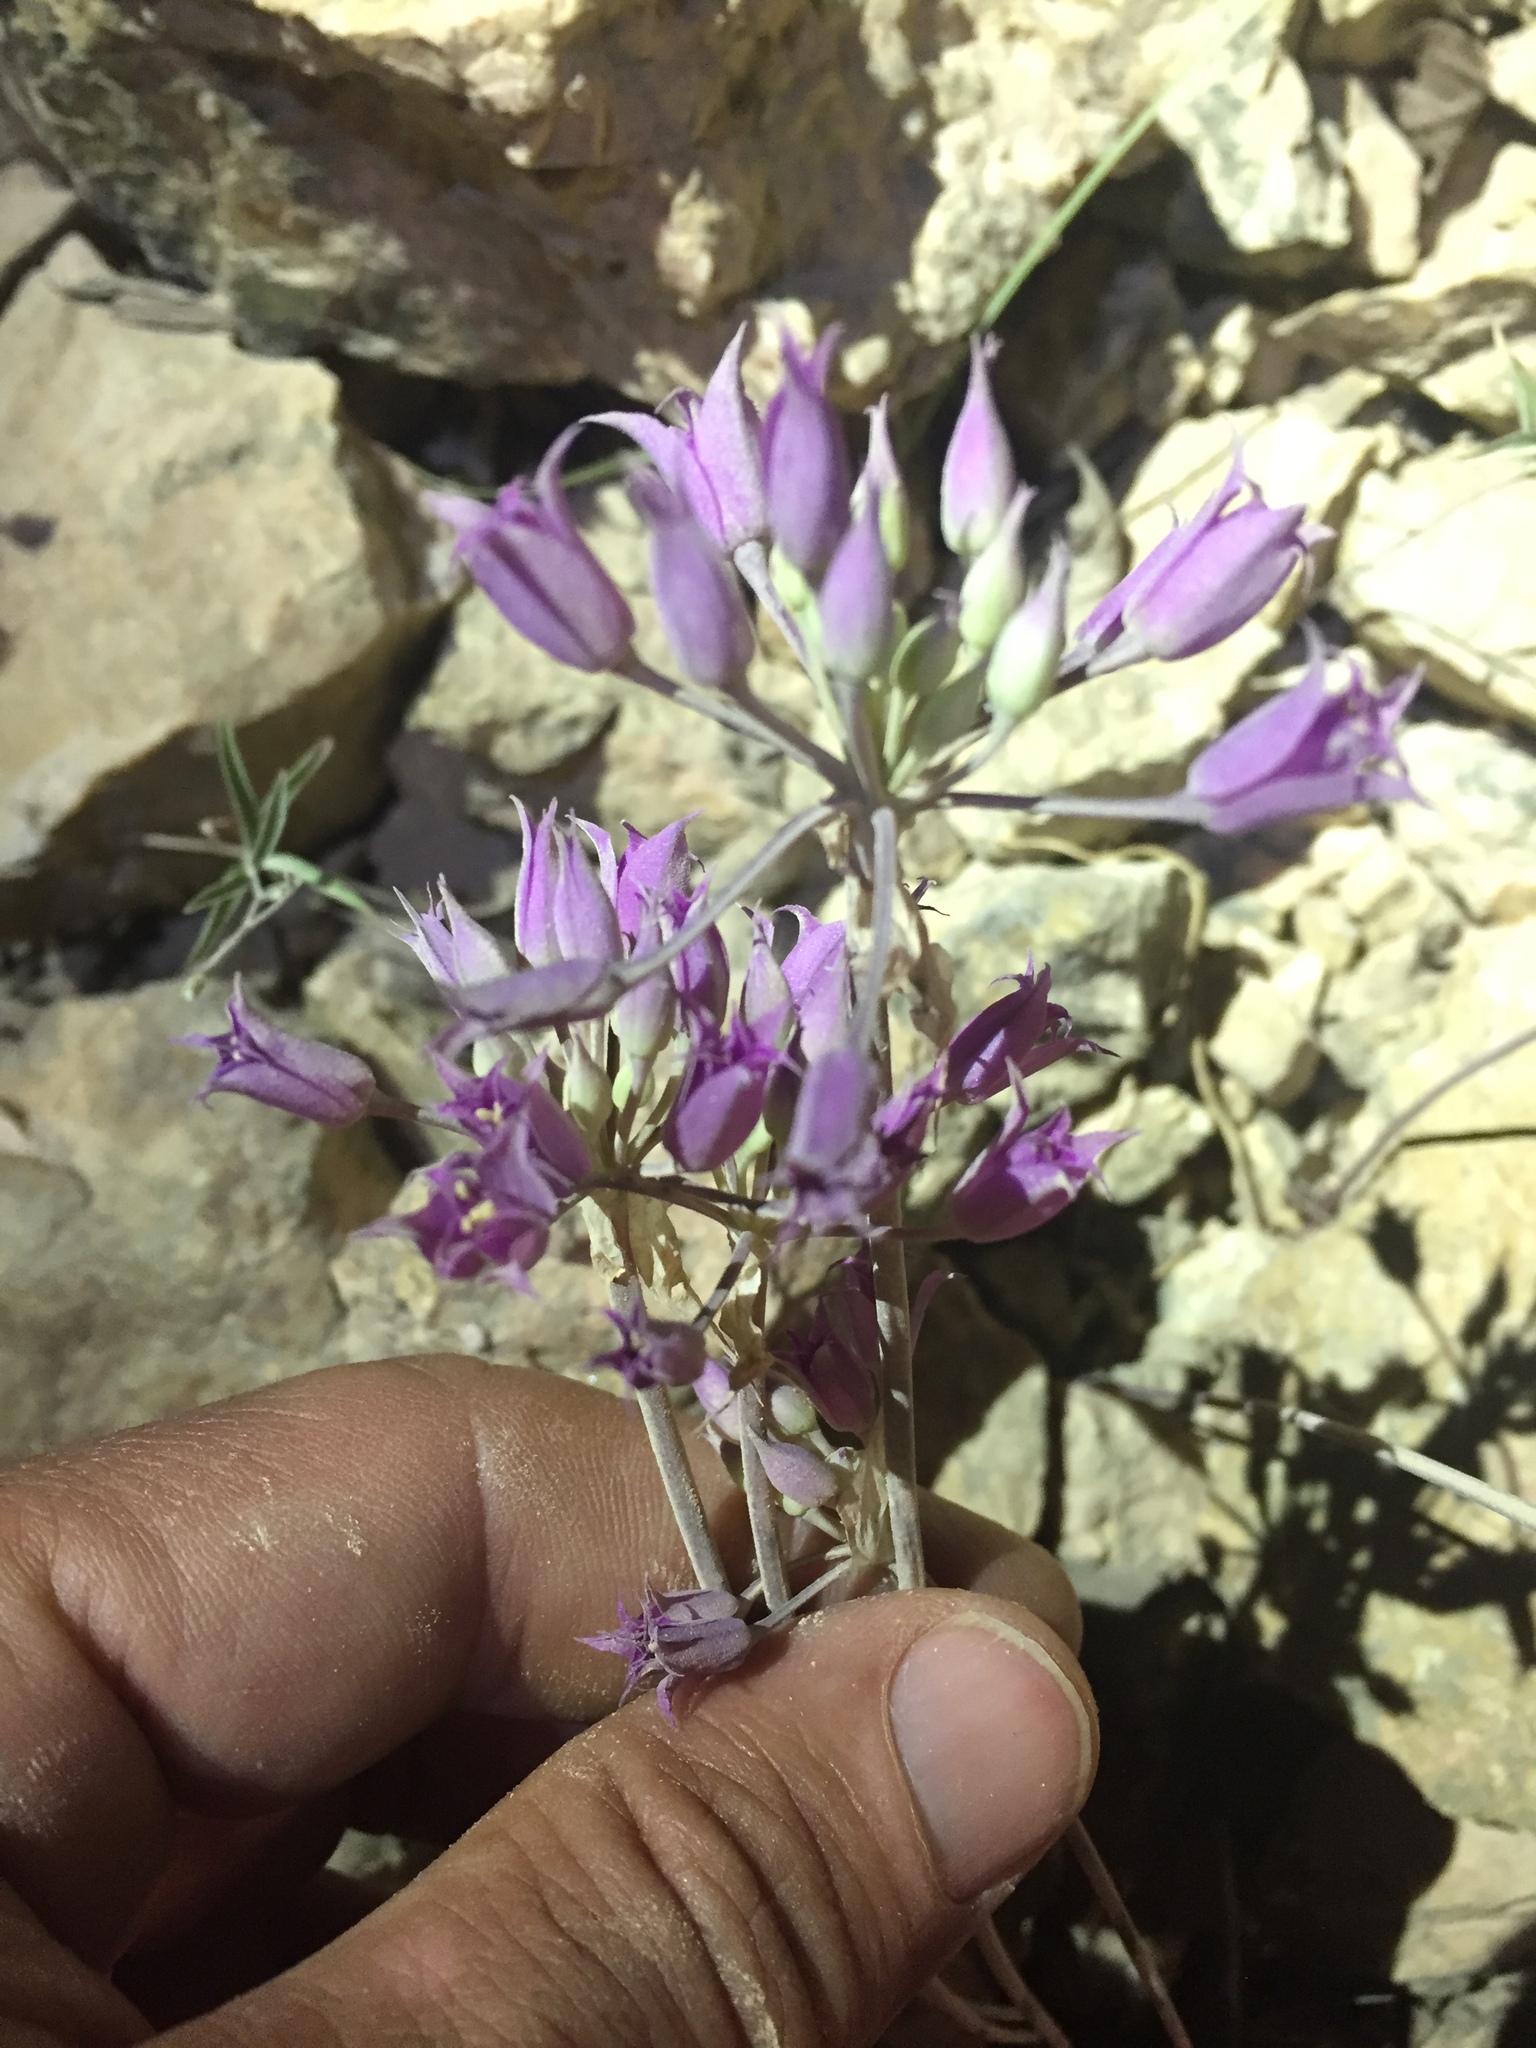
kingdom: Plantae
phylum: Tracheophyta
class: Liliopsida
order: Asparagales
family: Amaryllidaceae
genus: Allium
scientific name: Allium acuminatum
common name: Hooker's onion
